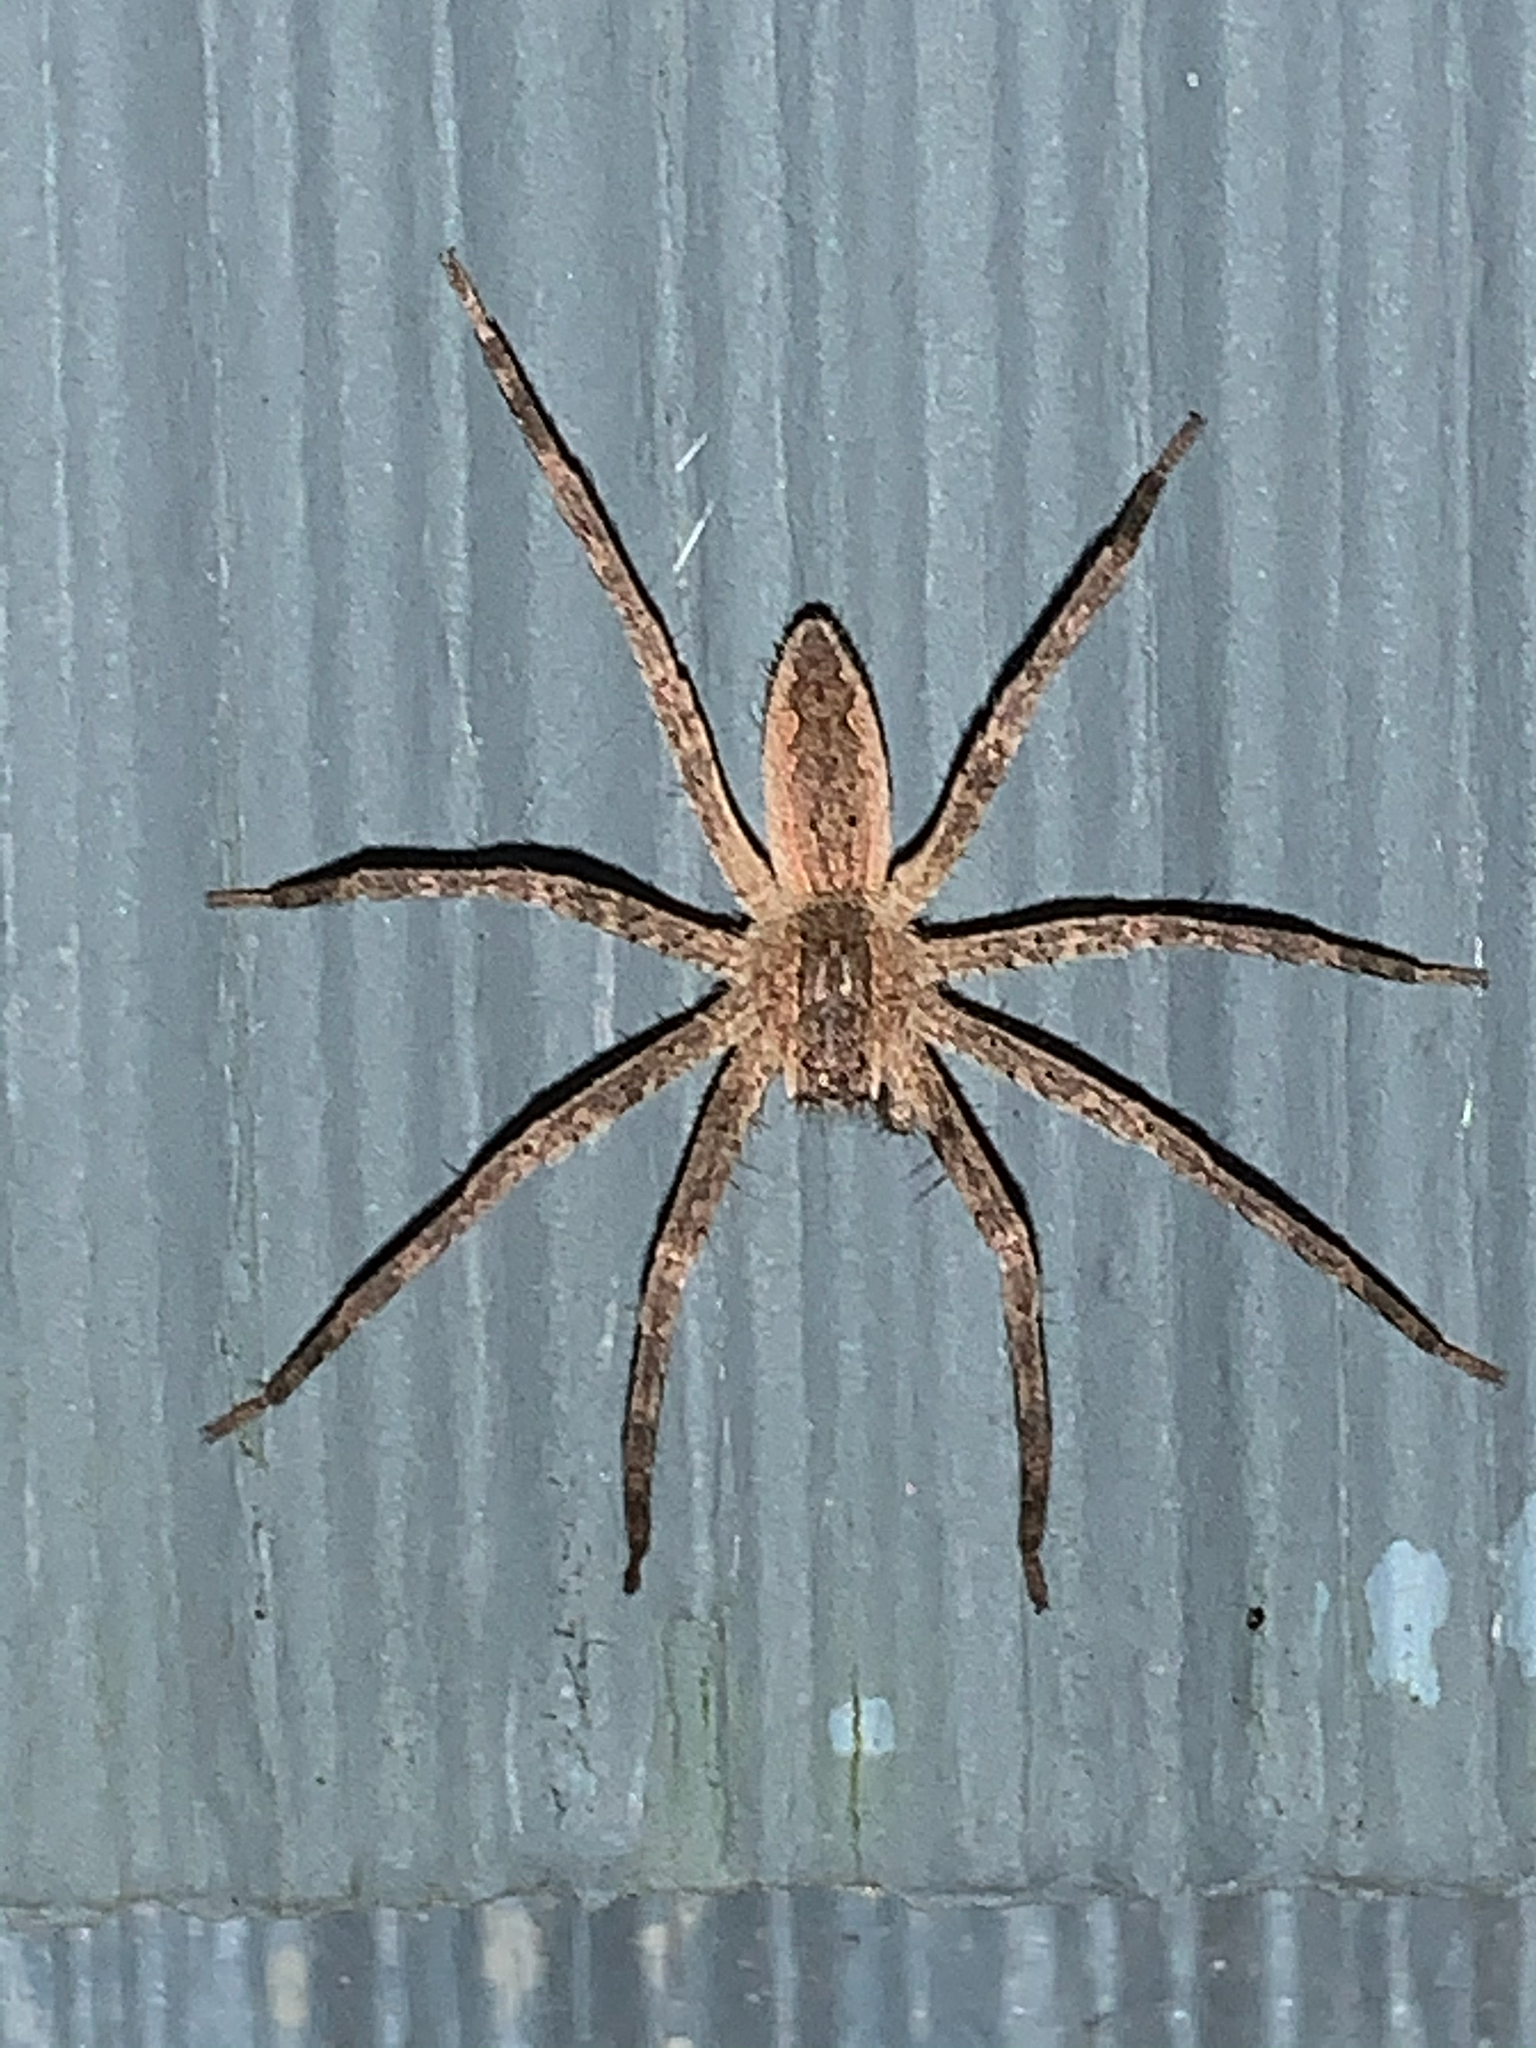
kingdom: Animalia
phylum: Arthropoda
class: Arachnida
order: Araneae
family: Pisauridae
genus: Pisaurina
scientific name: Pisaurina mira
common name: American nursery web spider
